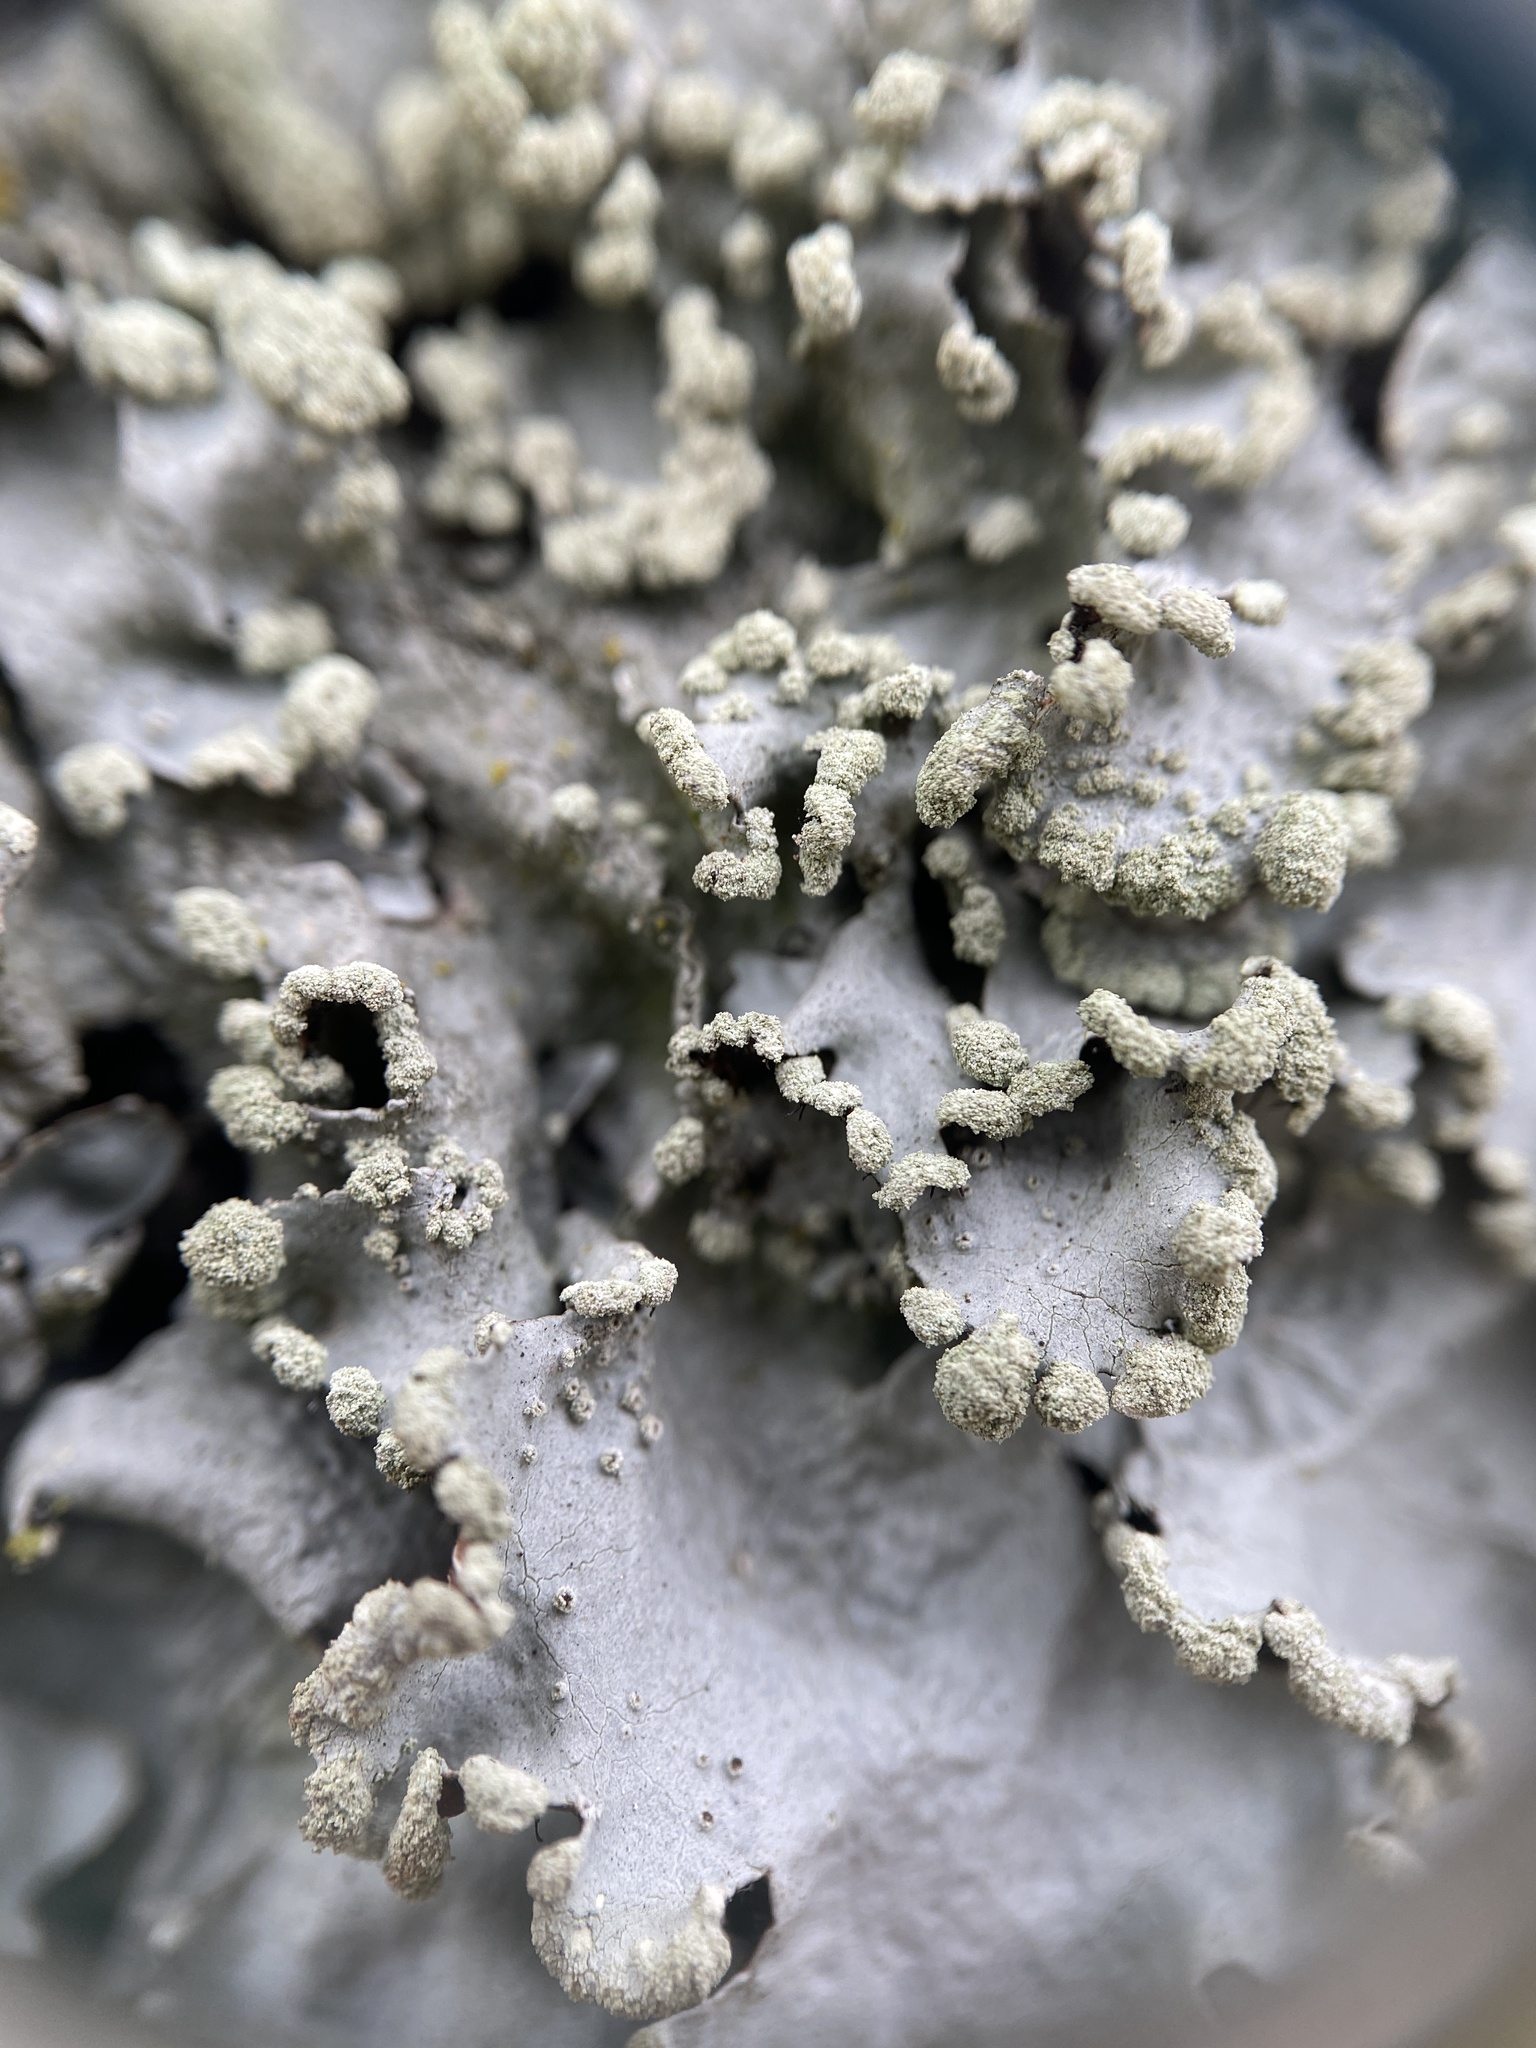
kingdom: Fungi
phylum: Ascomycota
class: Lecanoromycetes
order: Lecanorales
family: Parmeliaceae
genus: Parmotrema
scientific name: Parmotrema reticulatum
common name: Black sheet lichen
